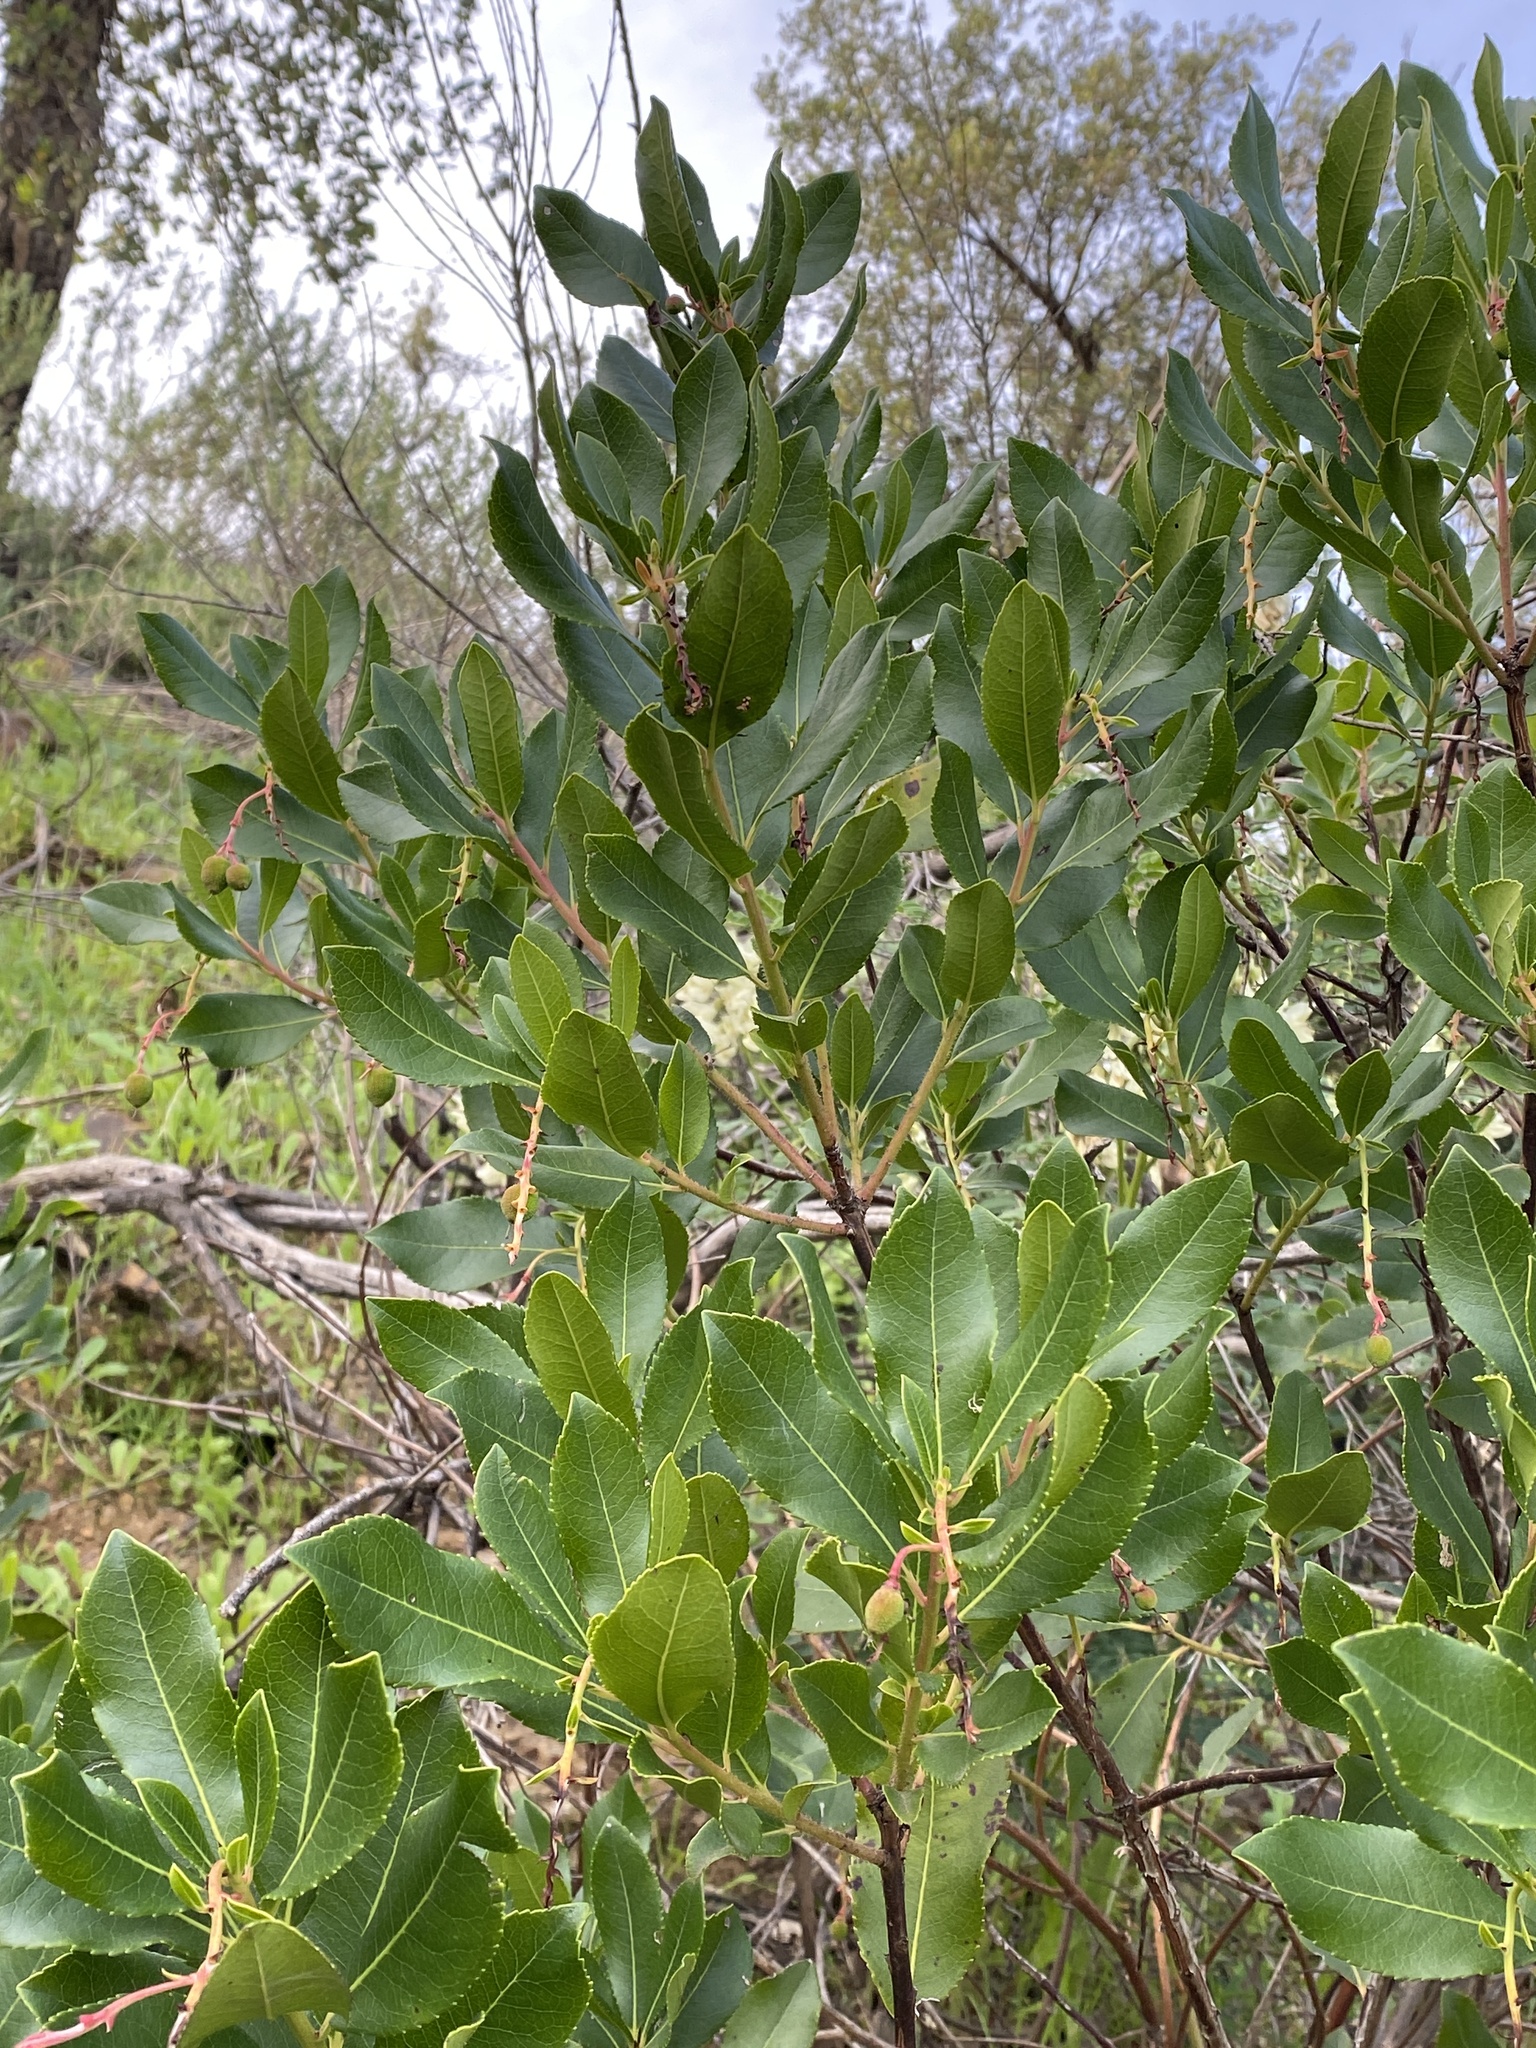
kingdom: Plantae
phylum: Tracheophyta
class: Magnoliopsida
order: Ericales
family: Ericaceae
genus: Arbutus
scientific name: Arbutus unedo
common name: Strawberry-tree
